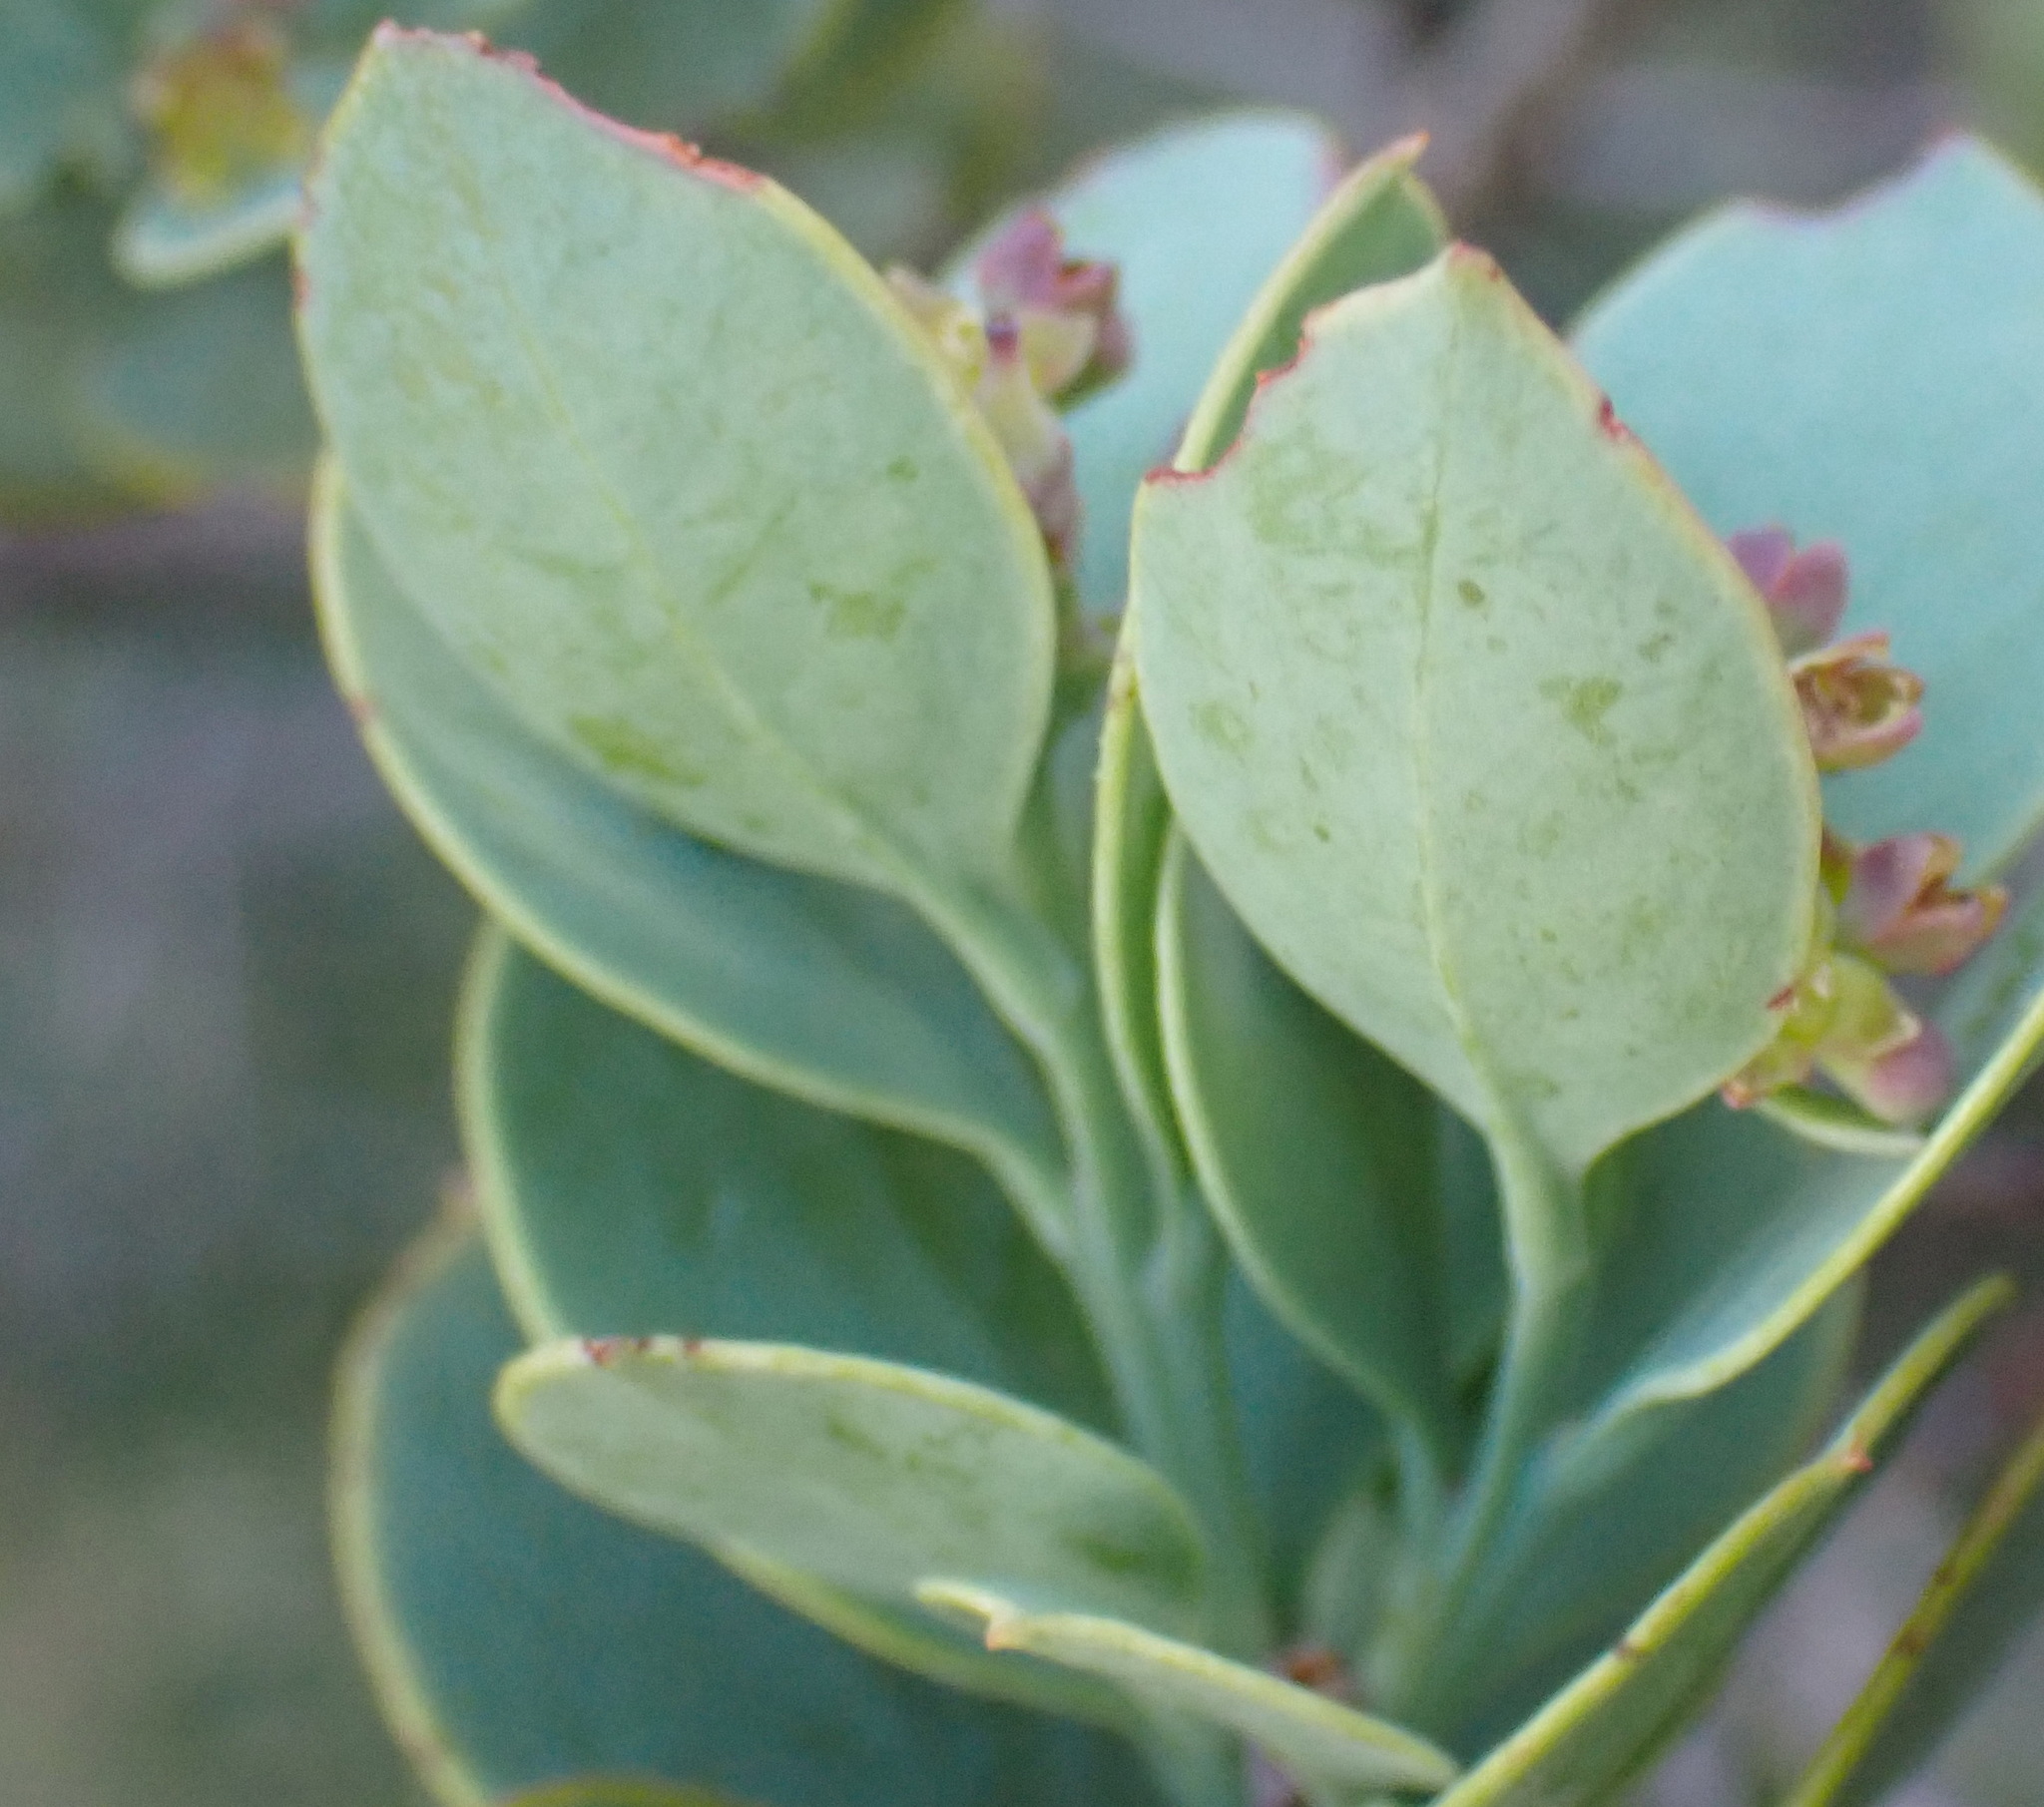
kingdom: Plantae
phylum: Tracheophyta
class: Magnoliopsida
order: Santalales
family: Santalaceae
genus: Osyris
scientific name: Osyris compressa
